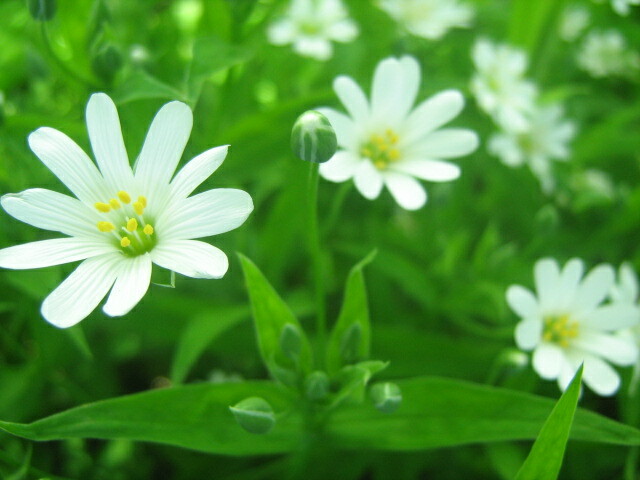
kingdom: Plantae
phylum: Tracheophyta
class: Magnoliopsida
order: Caryophyllales
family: Caryophyllaceae
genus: Rabelera
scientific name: Rabelera holostea
